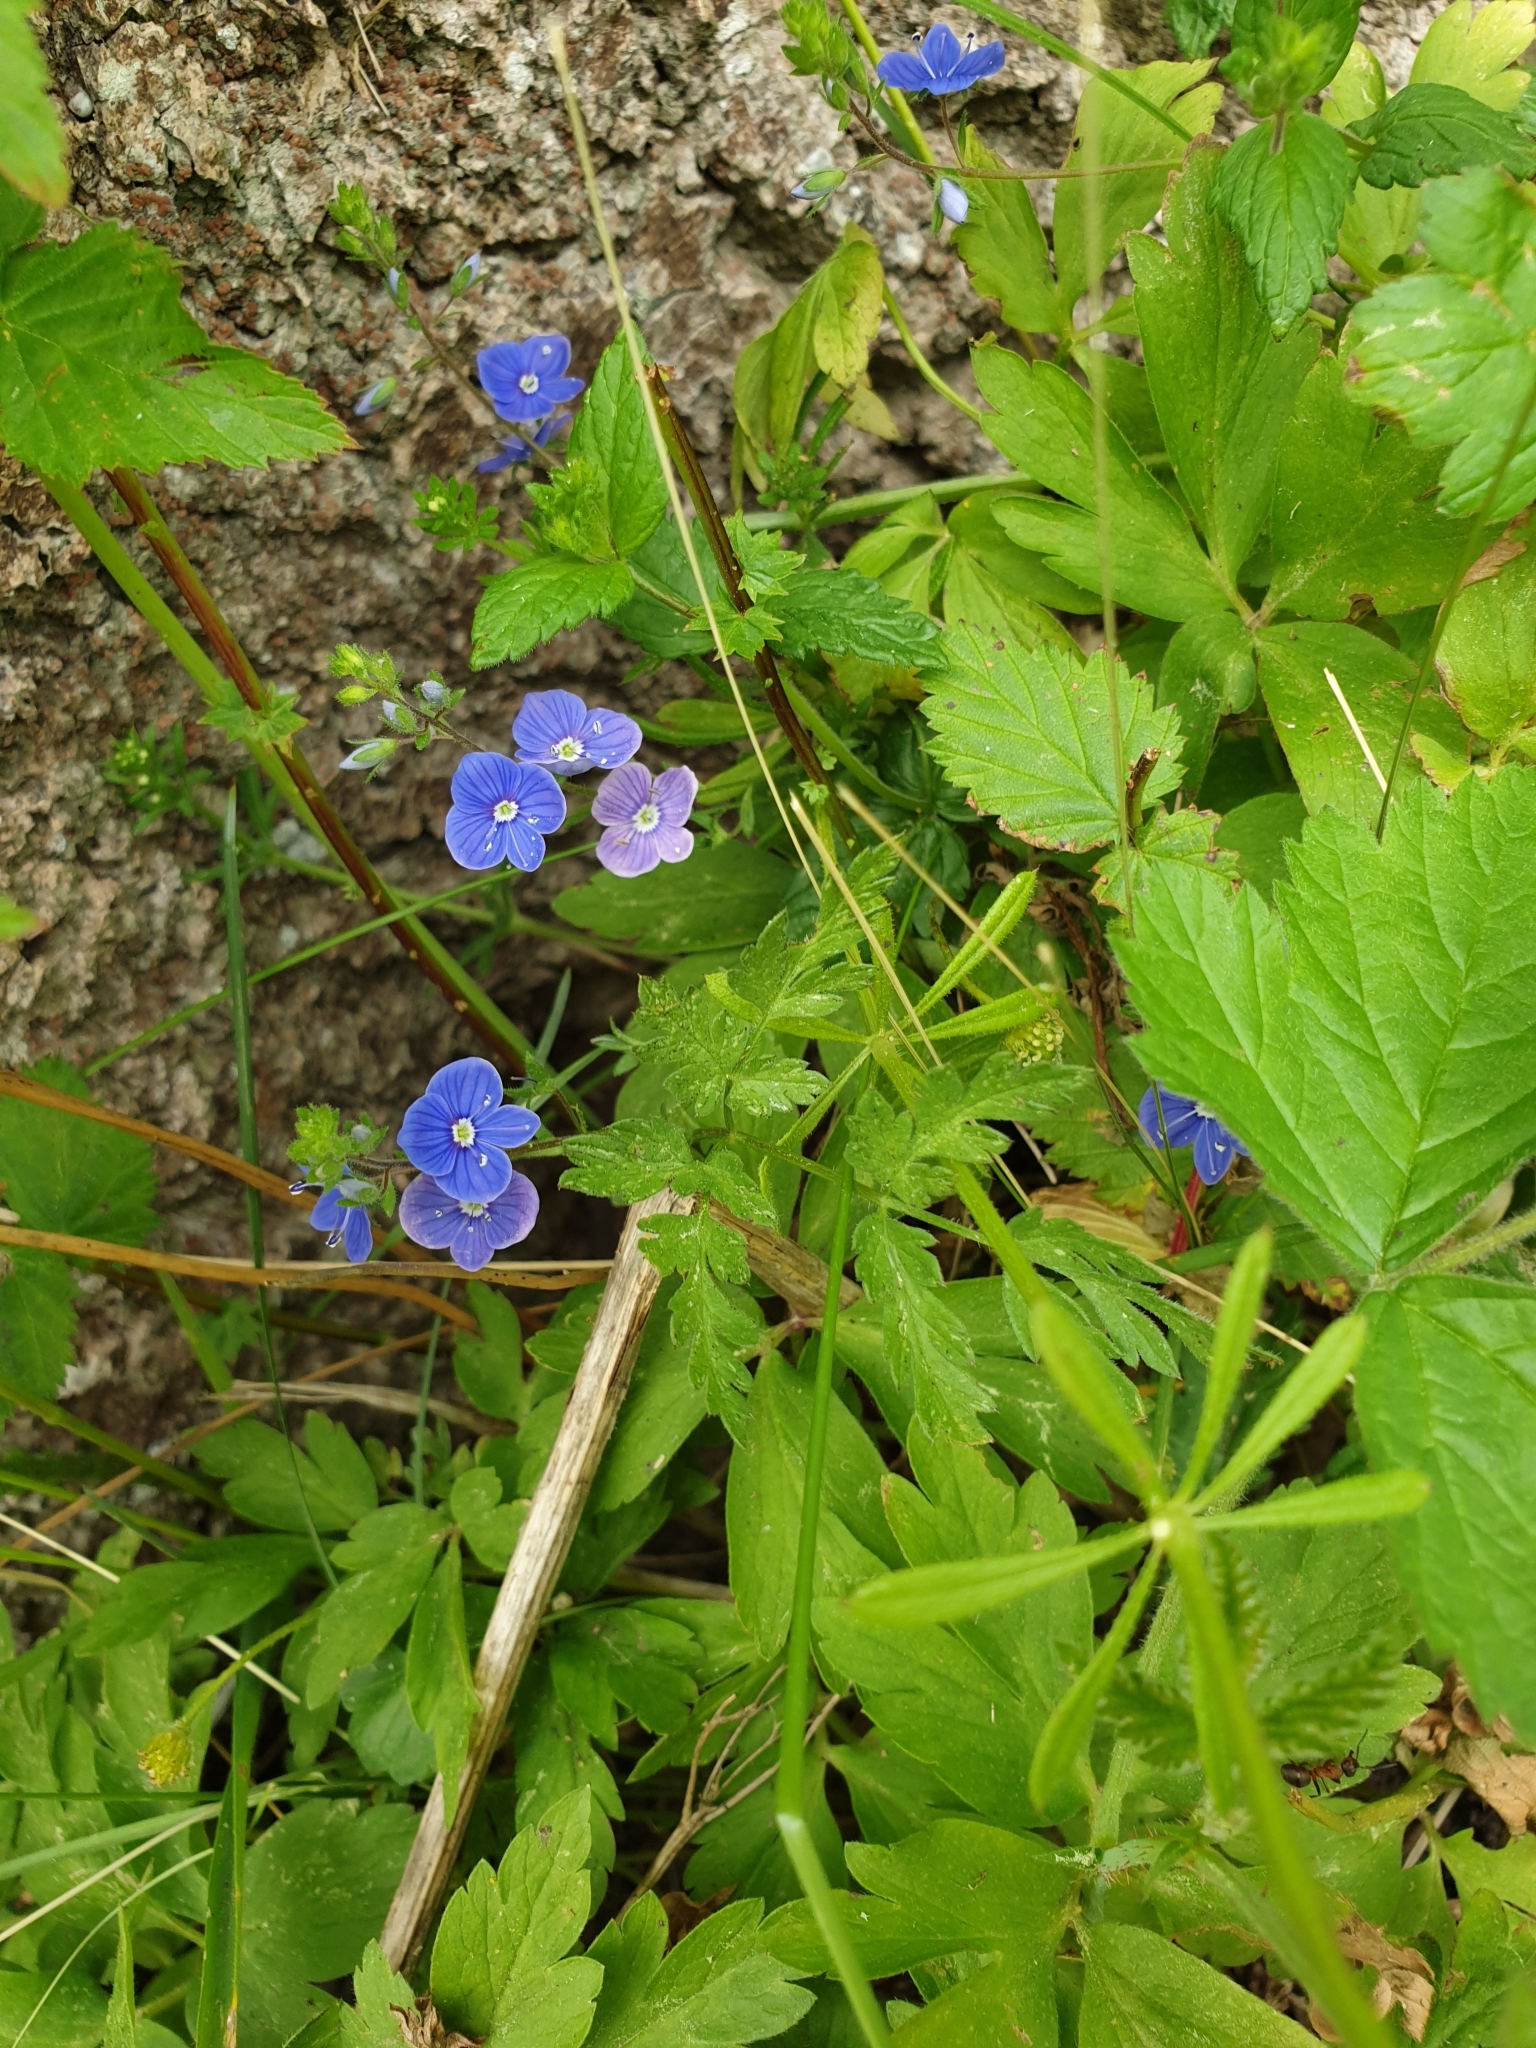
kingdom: Plantae
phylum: Tracheophyta
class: Magnoliopsida
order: Lamiales
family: Plantaginaceae
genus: Veronica
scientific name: Veronica chamaedrys
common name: Germander speedwell
